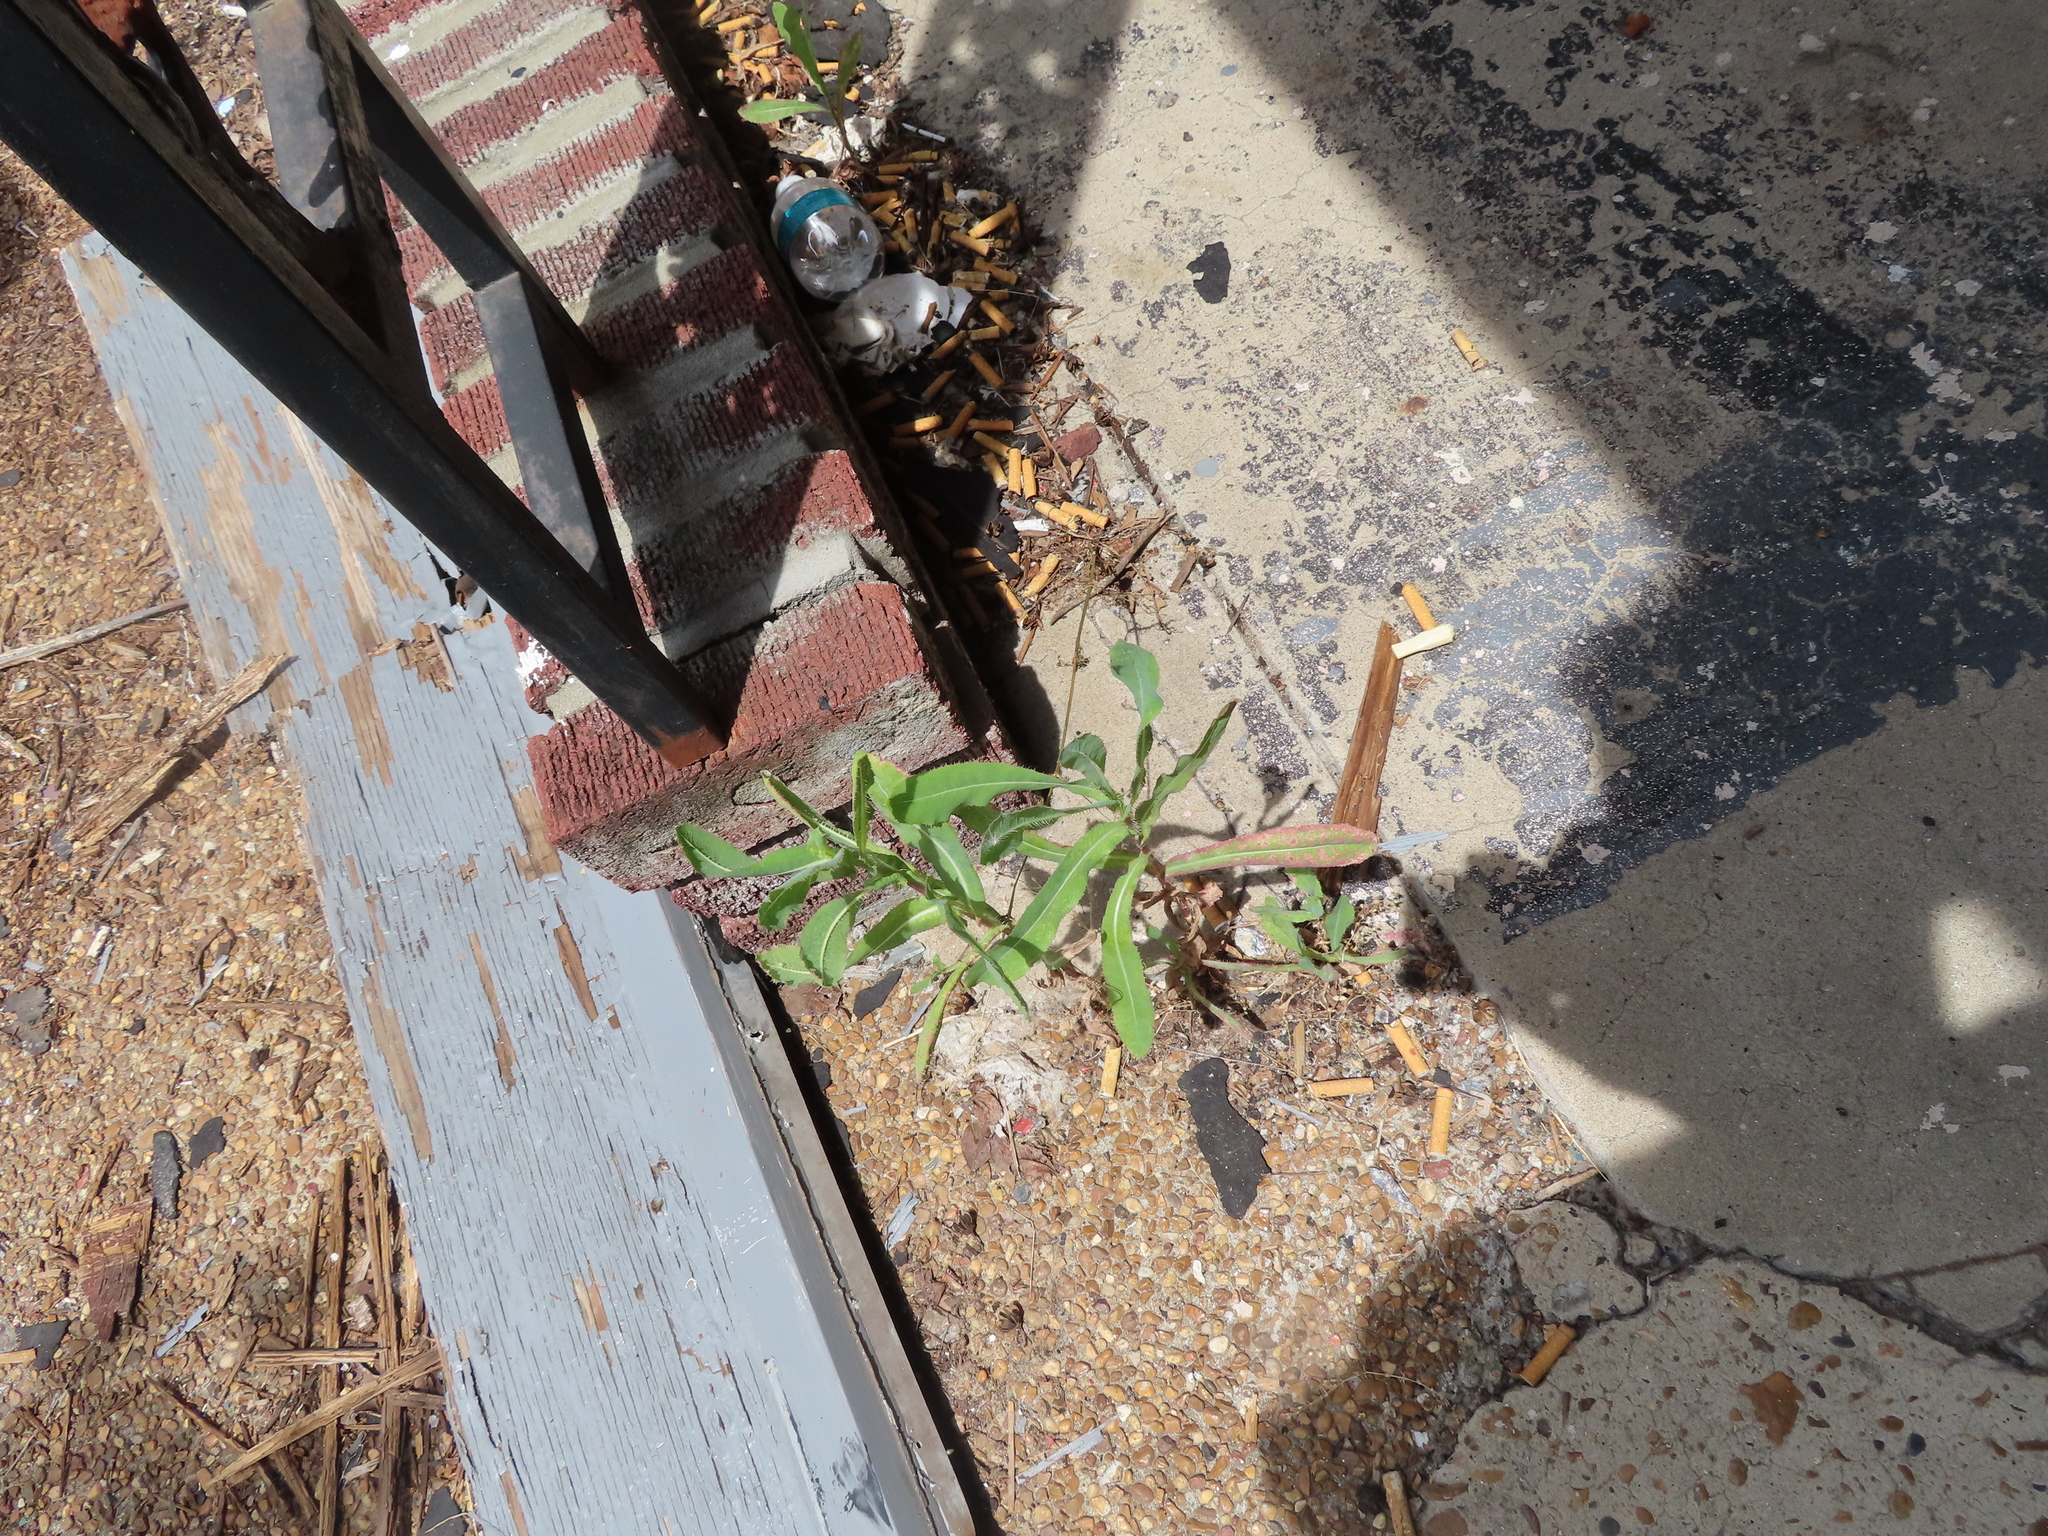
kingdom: Plantae
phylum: Tracheophyta
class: Magnoliopsida
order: Asterales
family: Asteraceae
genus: Lactuca
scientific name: Lactuca serriola
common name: Prickly lettuce
